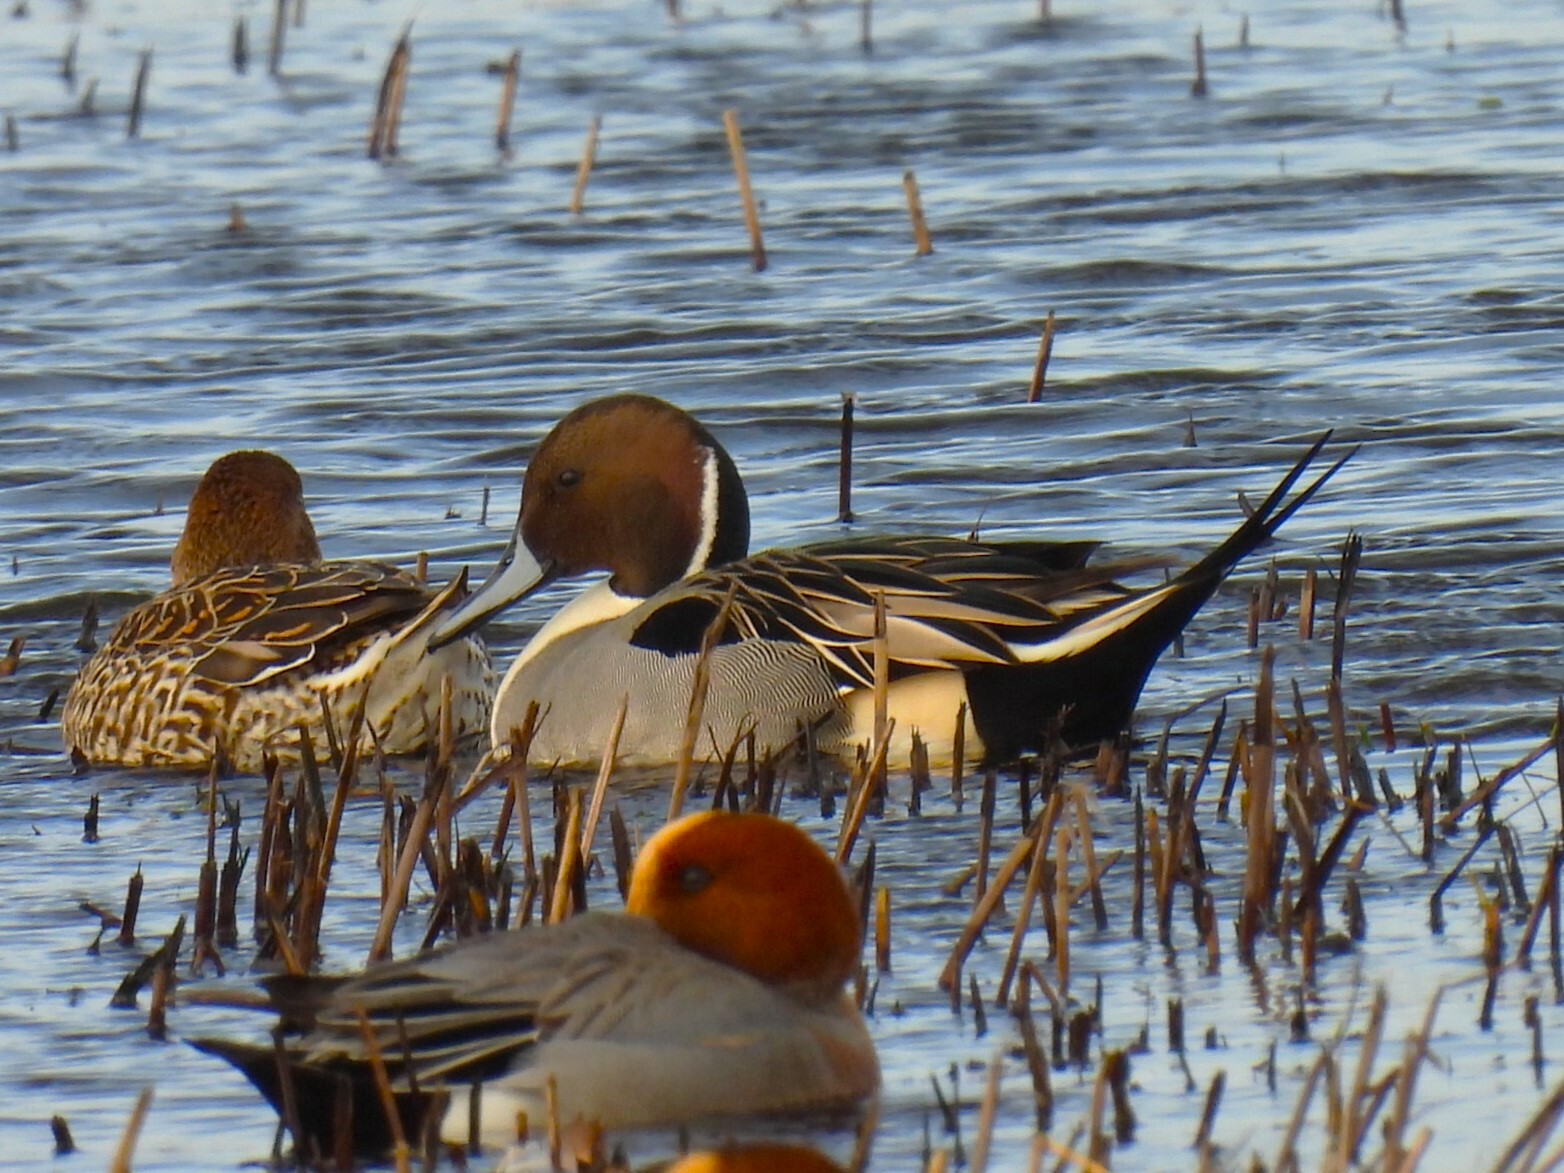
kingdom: Animalia
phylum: Chordata
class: Aves
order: Anseriformes
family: Anatidae
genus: Anas
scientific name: Anas acuta
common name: Northern pintail
